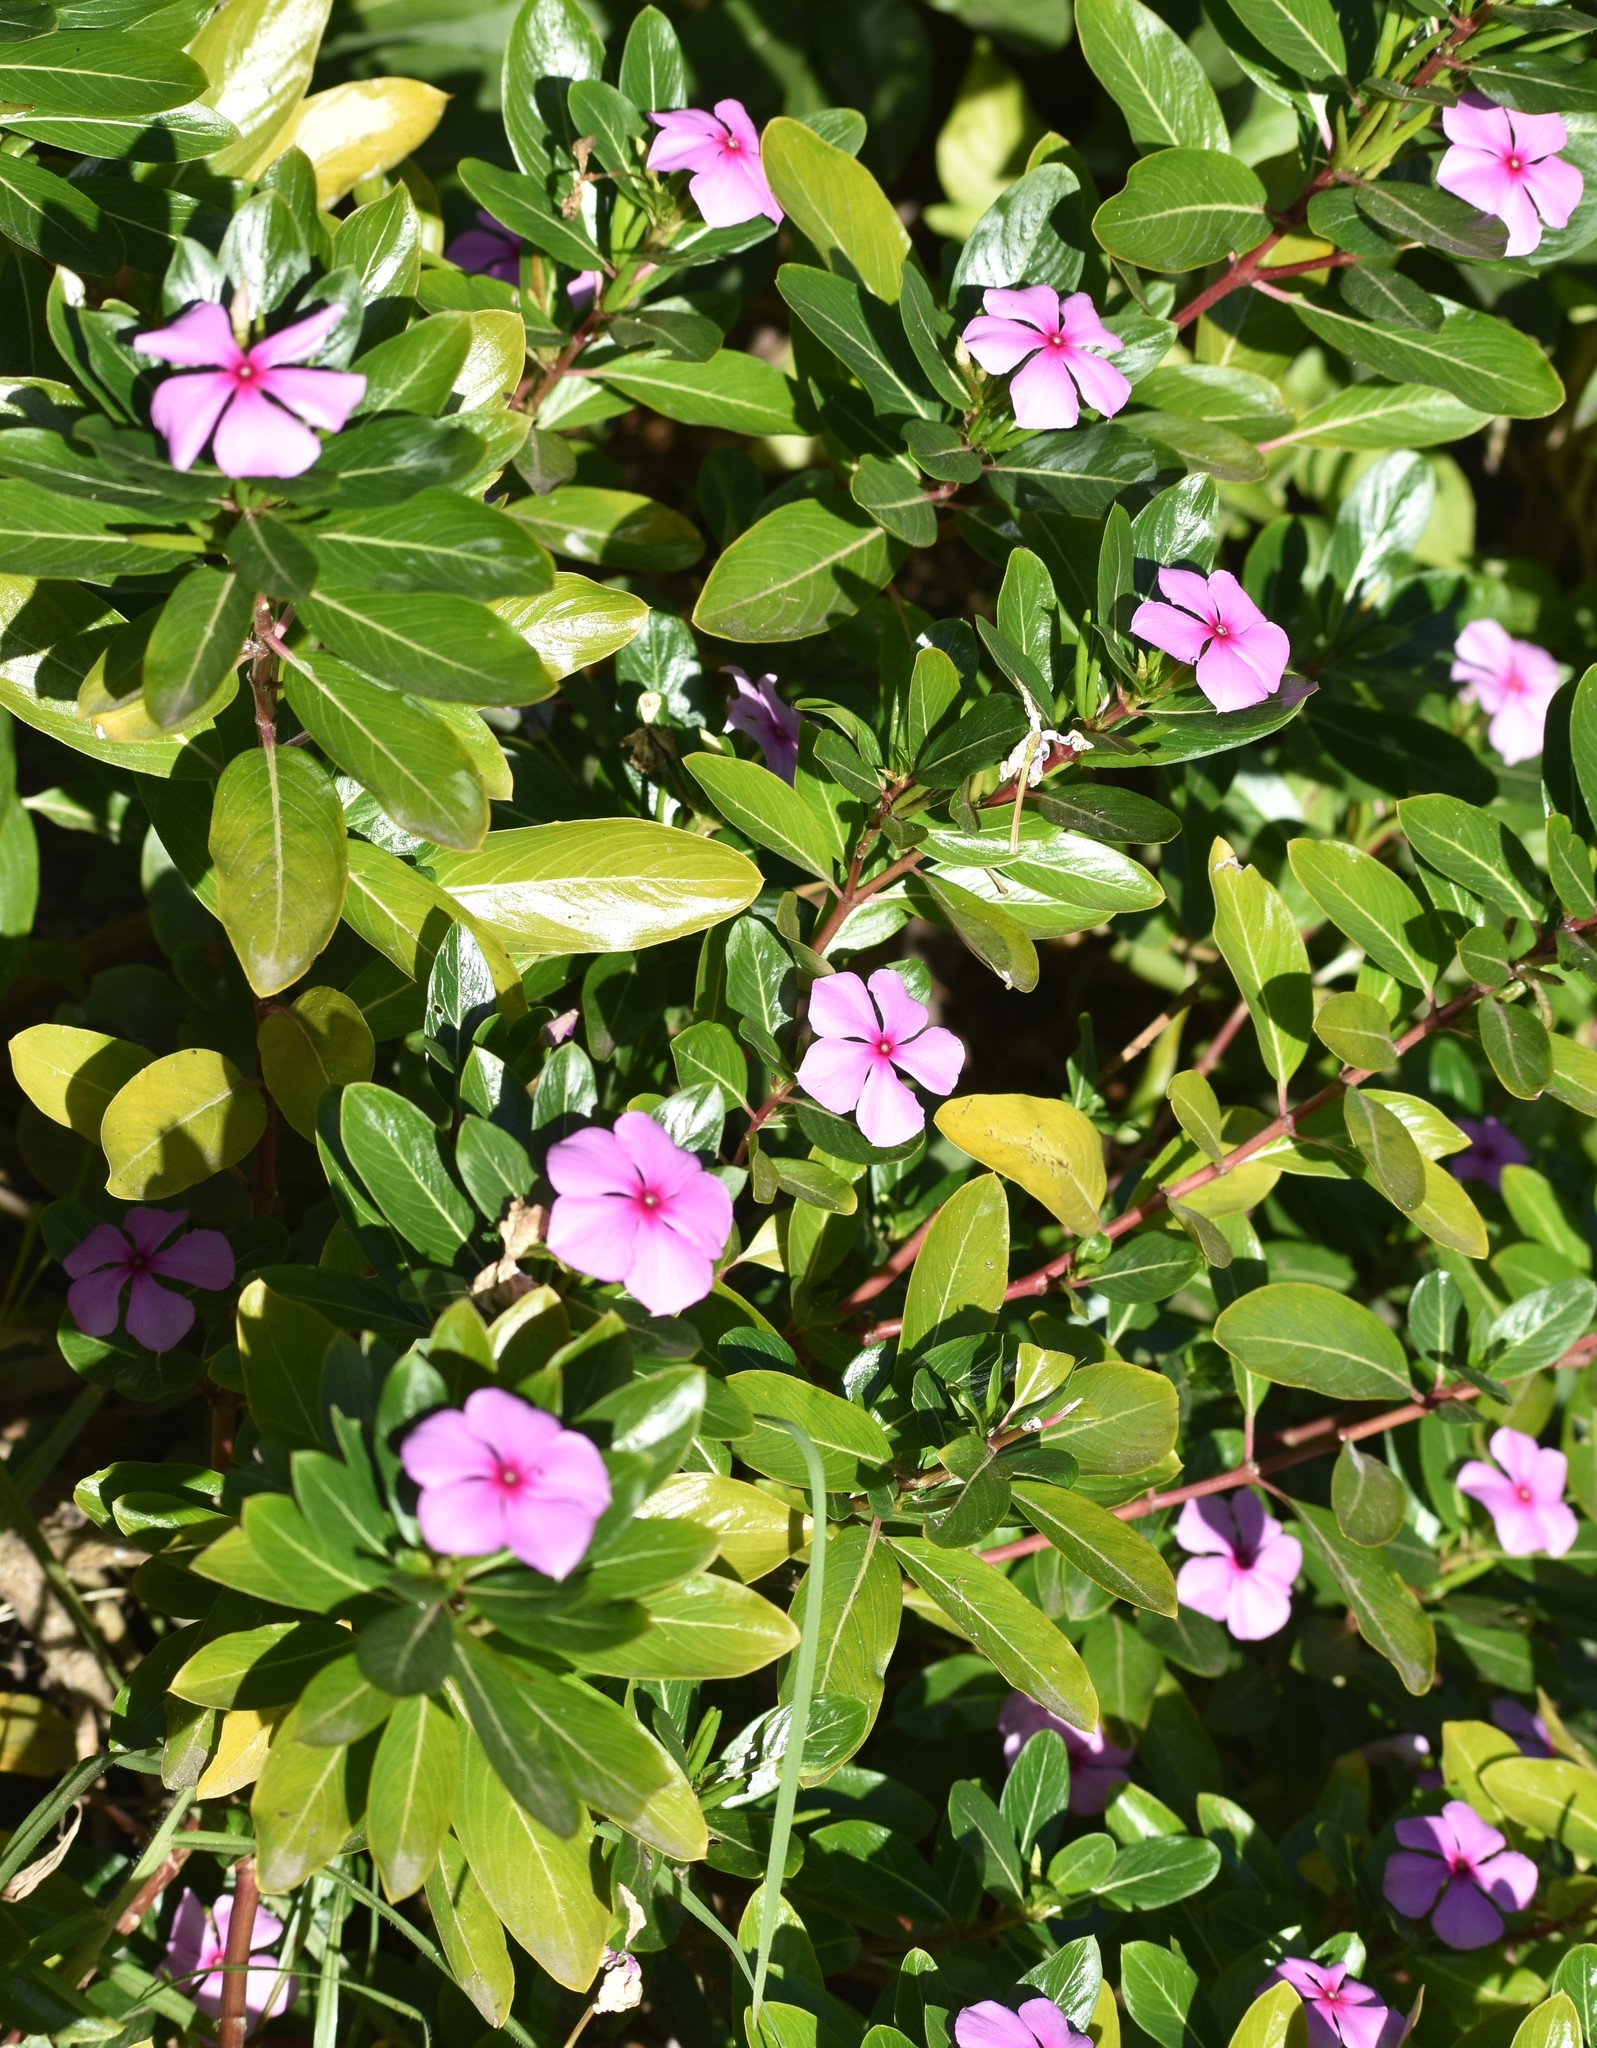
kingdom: Plantae
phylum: Tracheophyta
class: Magnoliopsida
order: Gentianales
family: Apocynaceae
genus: Catharanthus
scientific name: Catharanthus roseus
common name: Madagascar periwinkle
